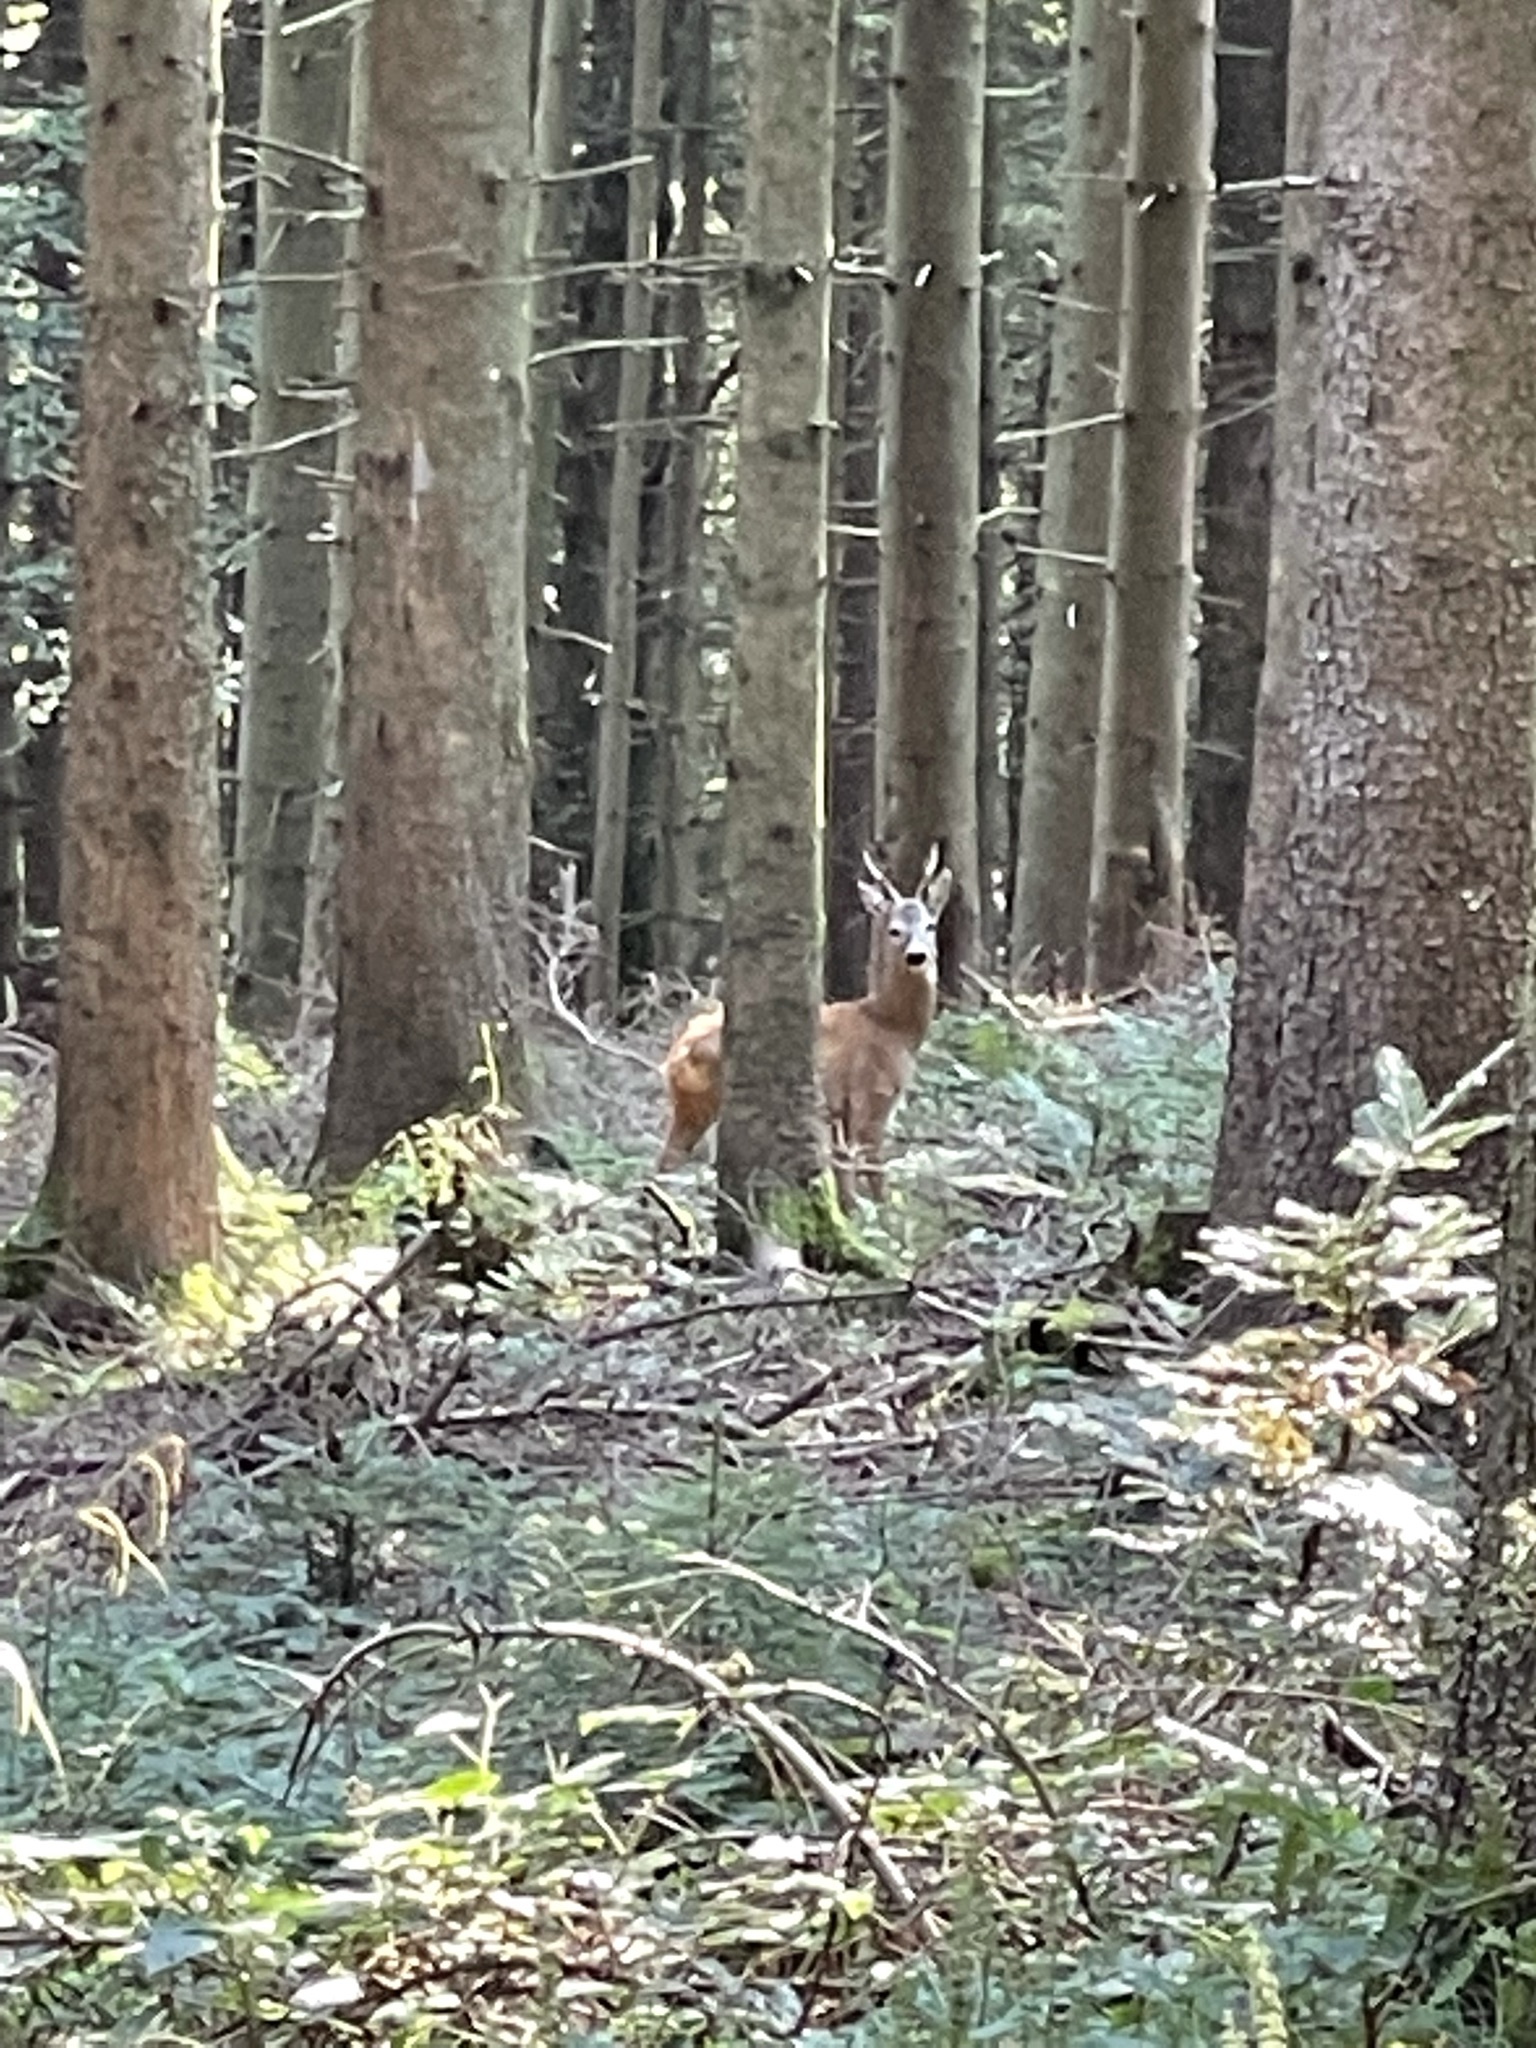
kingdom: Animalia
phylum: Chordata
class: Mammalia
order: Artiodactyla
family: Cervidae
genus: Capreolus
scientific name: Capreolus capreolus
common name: Western roe deer
